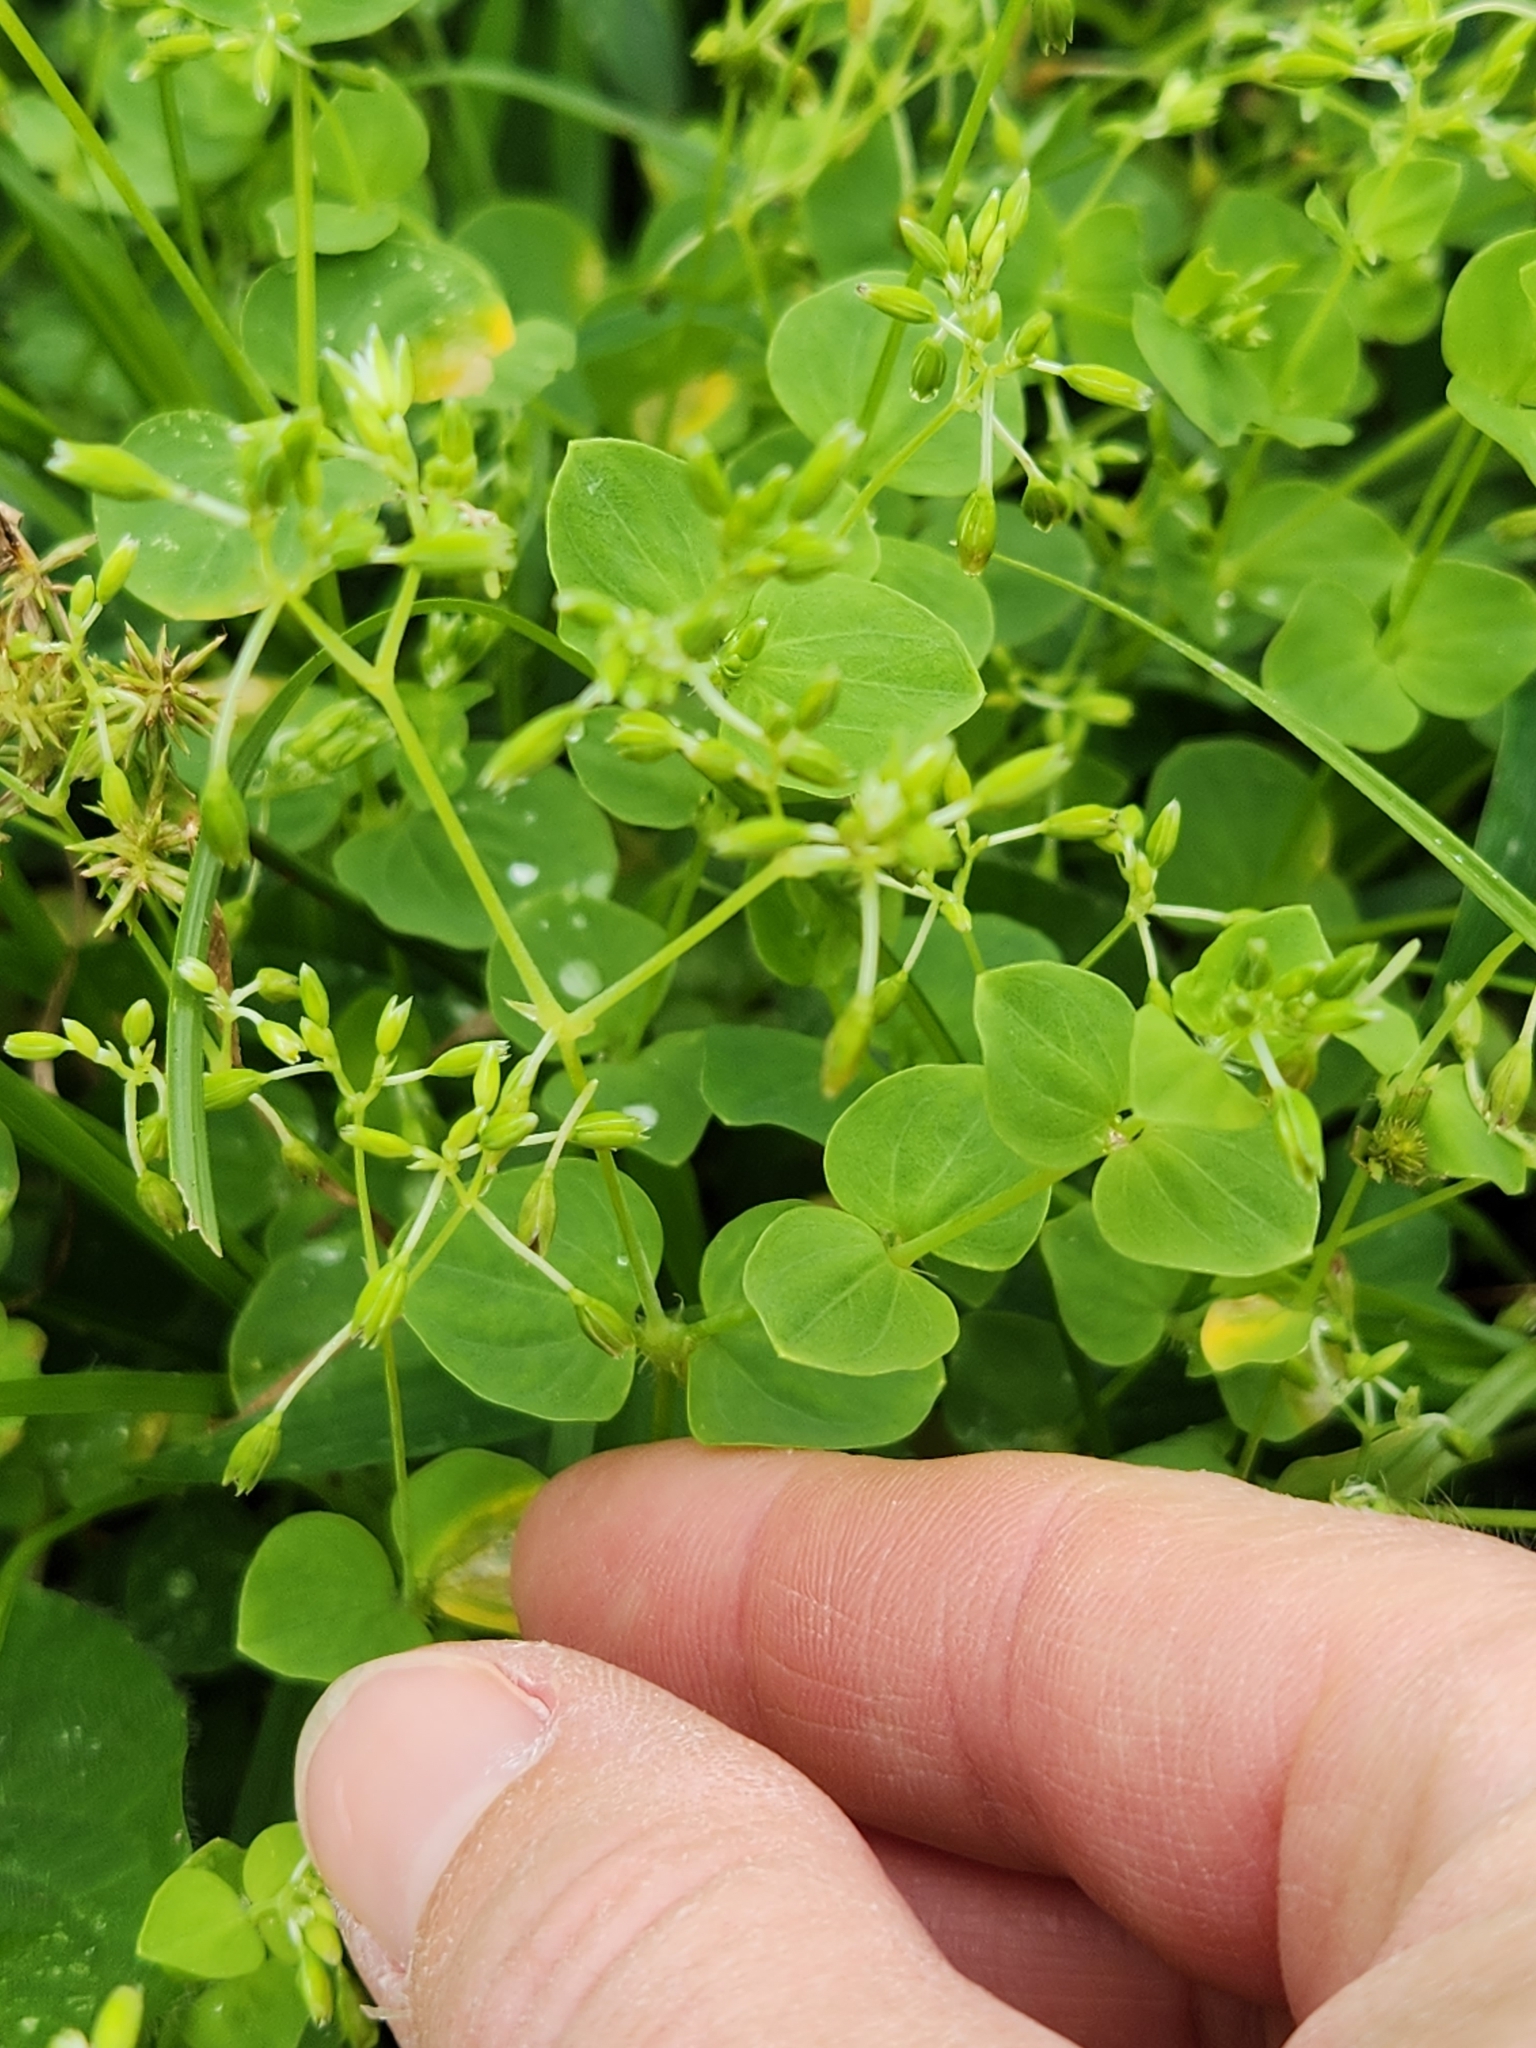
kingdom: Plantae
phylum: Tracheophyta
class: Magnoliopsida
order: Caryophyllales
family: Caryophyllaceae
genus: Drymaria
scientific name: Drymaria cordata
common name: Whitesnow
